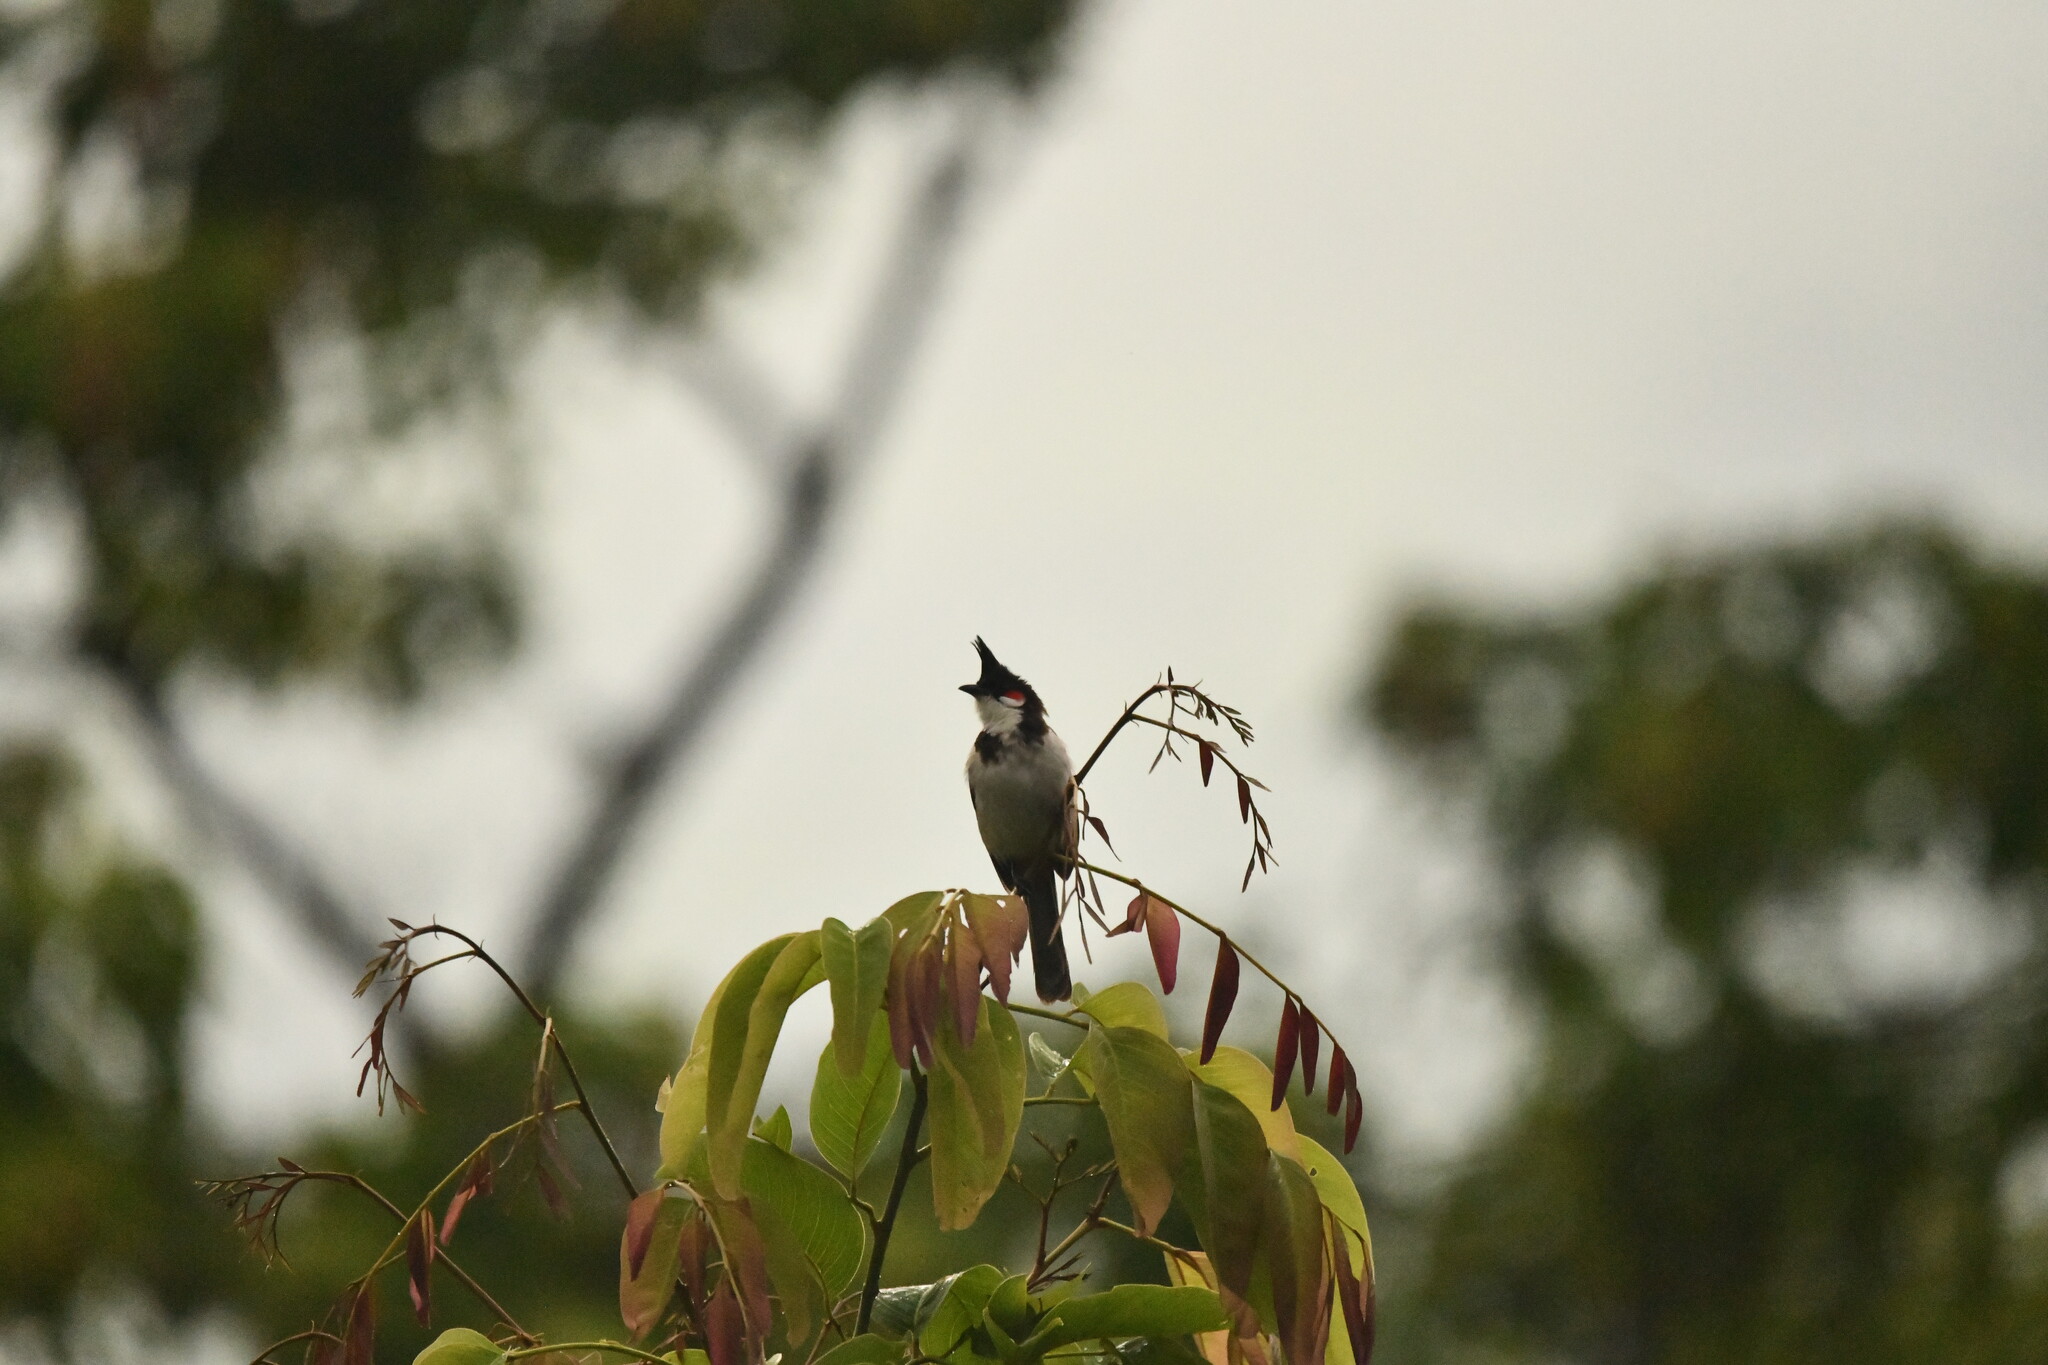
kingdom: Animalia
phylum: Chordata
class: Aves
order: Passeriformes
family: Pycnonotidae
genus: Pycnonotus
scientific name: Pycnonotus jocosus
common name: Red-whiskered bulbul
